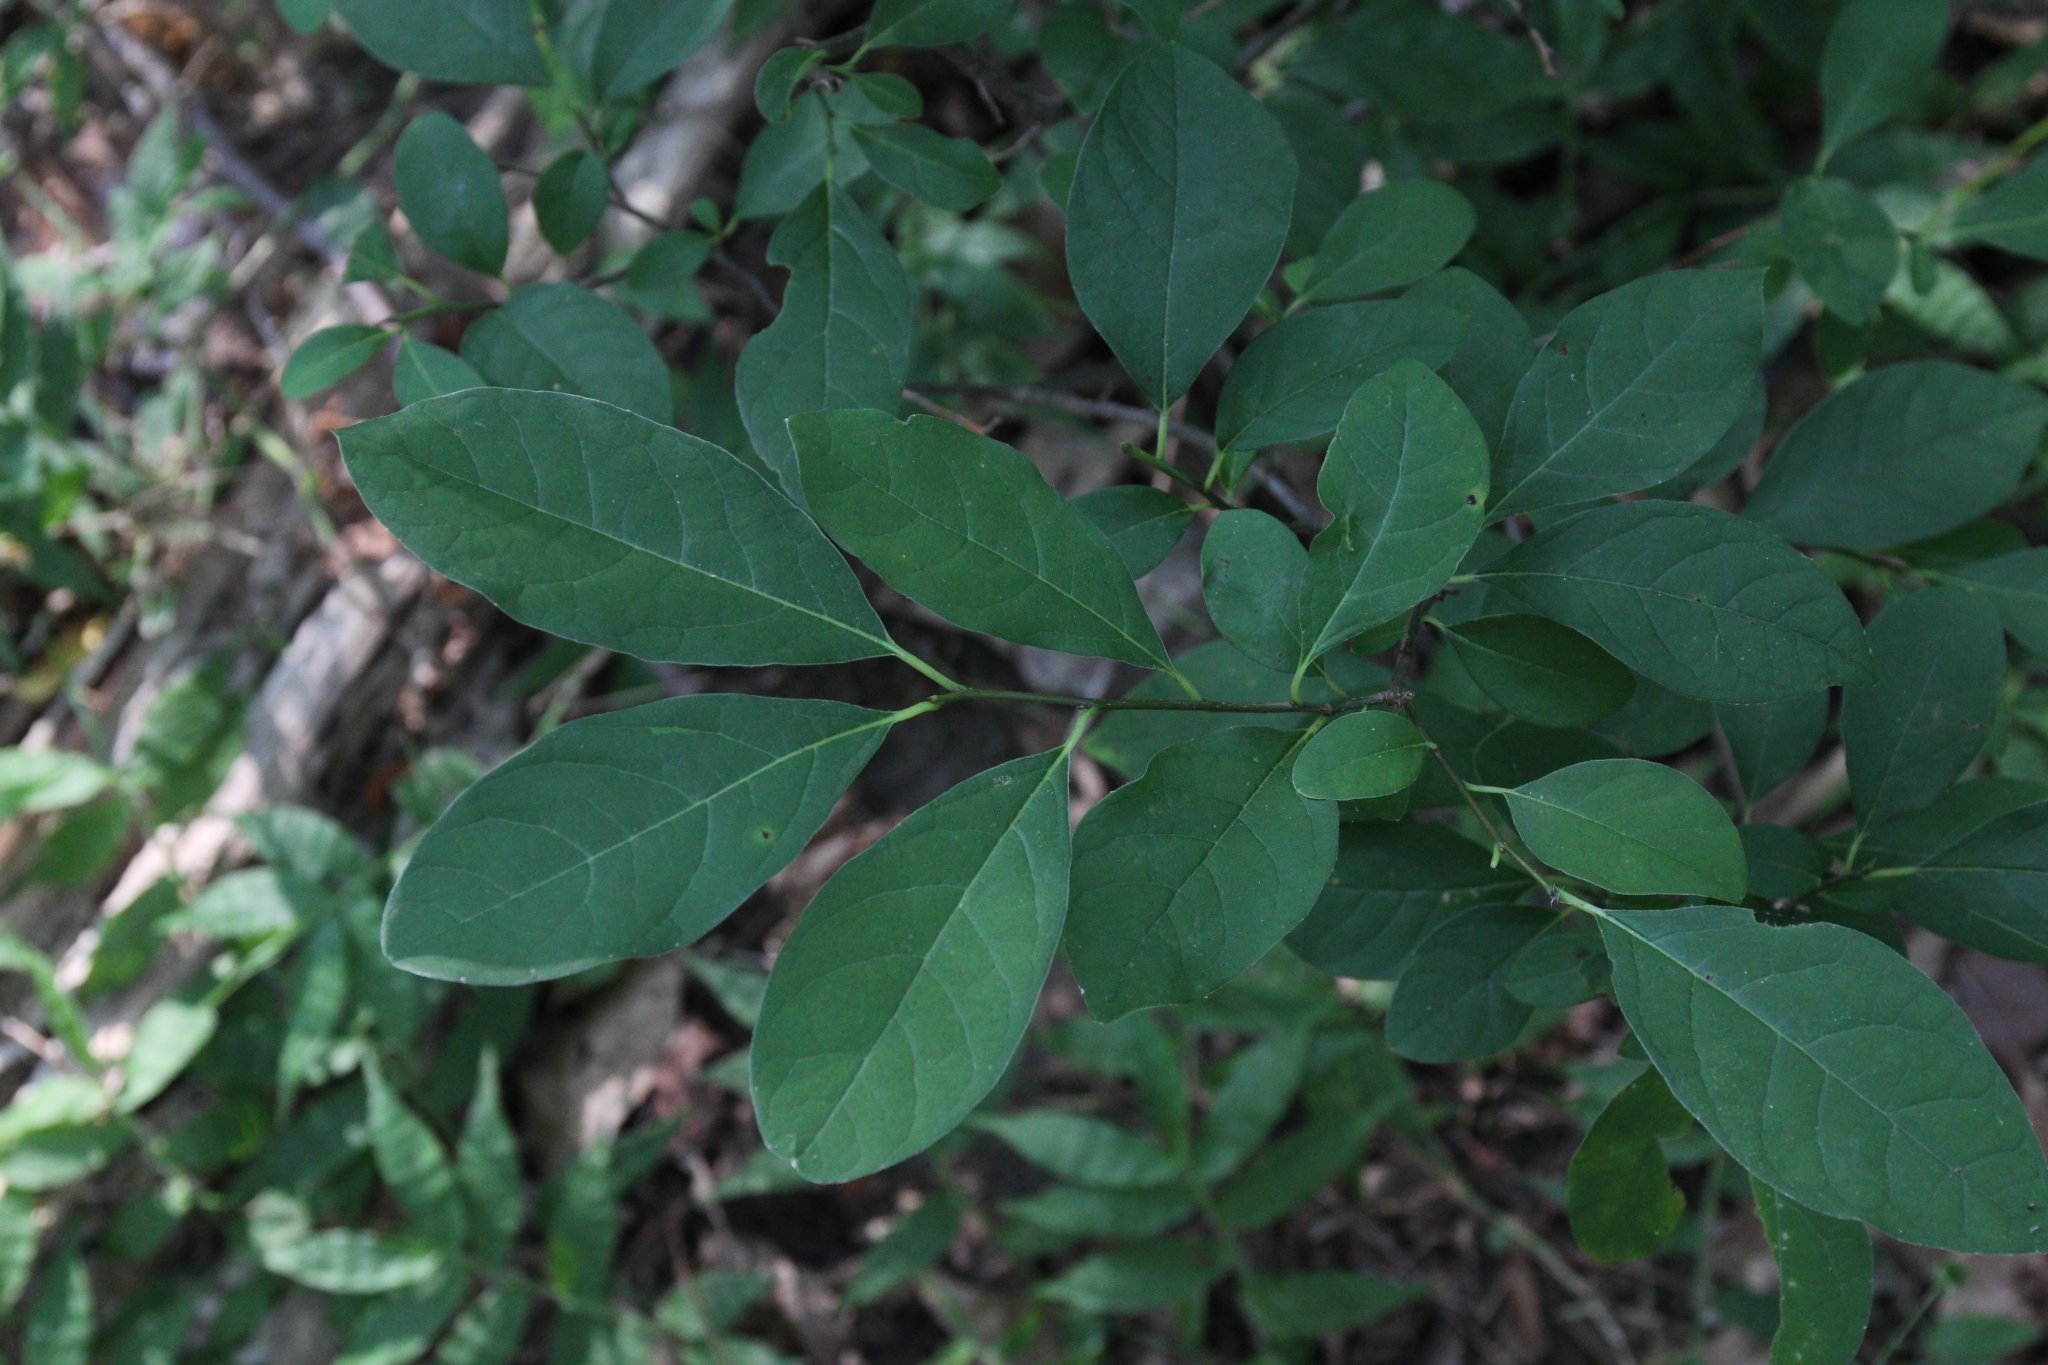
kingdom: Plantae
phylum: Tracheophyta
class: Magnoliopsida
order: Laurales
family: Lauraceae
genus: Lindera
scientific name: Lindera benzoin
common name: Spicebush
